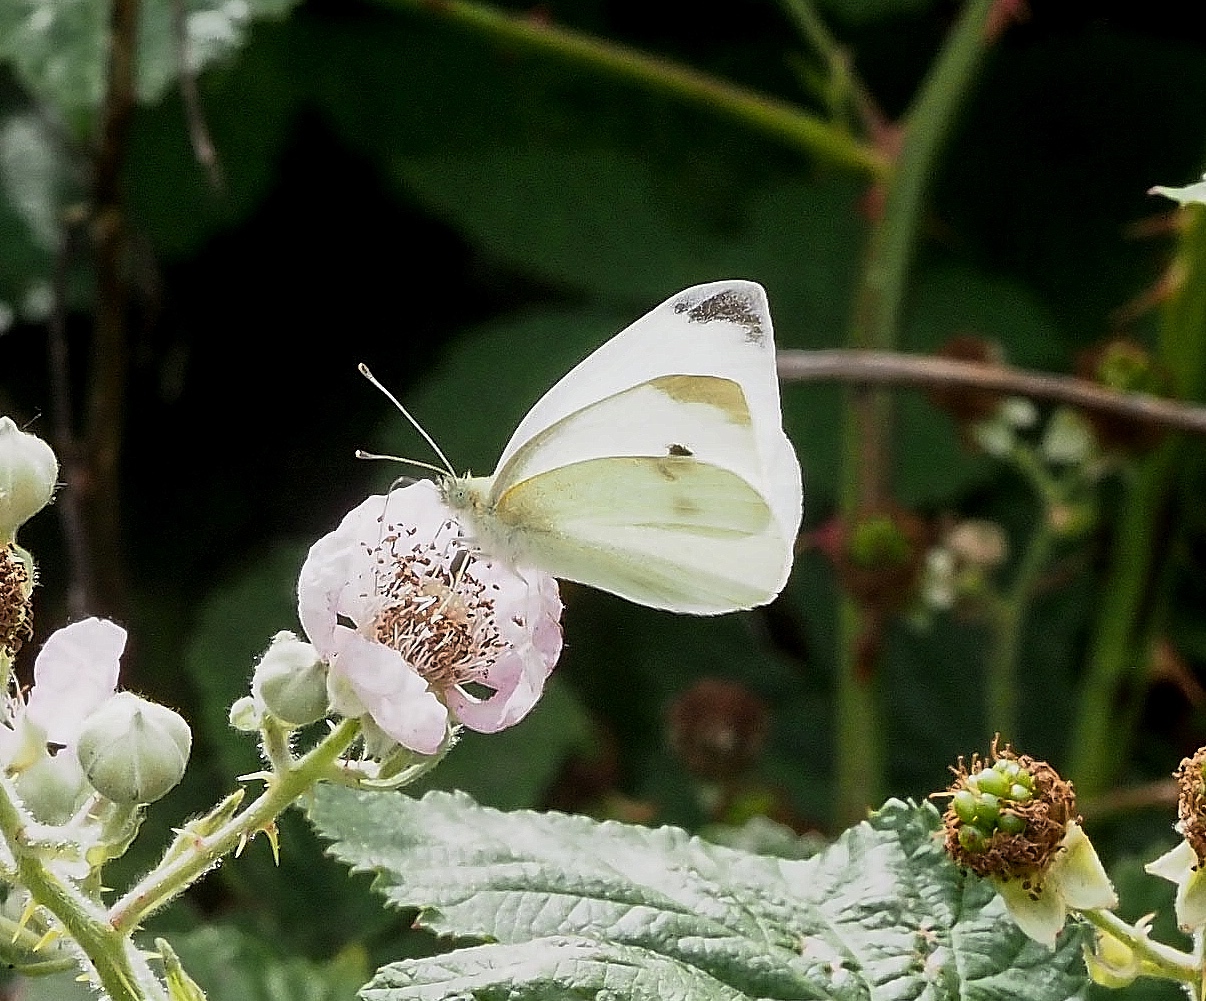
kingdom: Animalia
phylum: Arthropoda
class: Insecta
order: Lepidoptera
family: Pieridae
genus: Pieris
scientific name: Pieris rapae
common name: Small white
